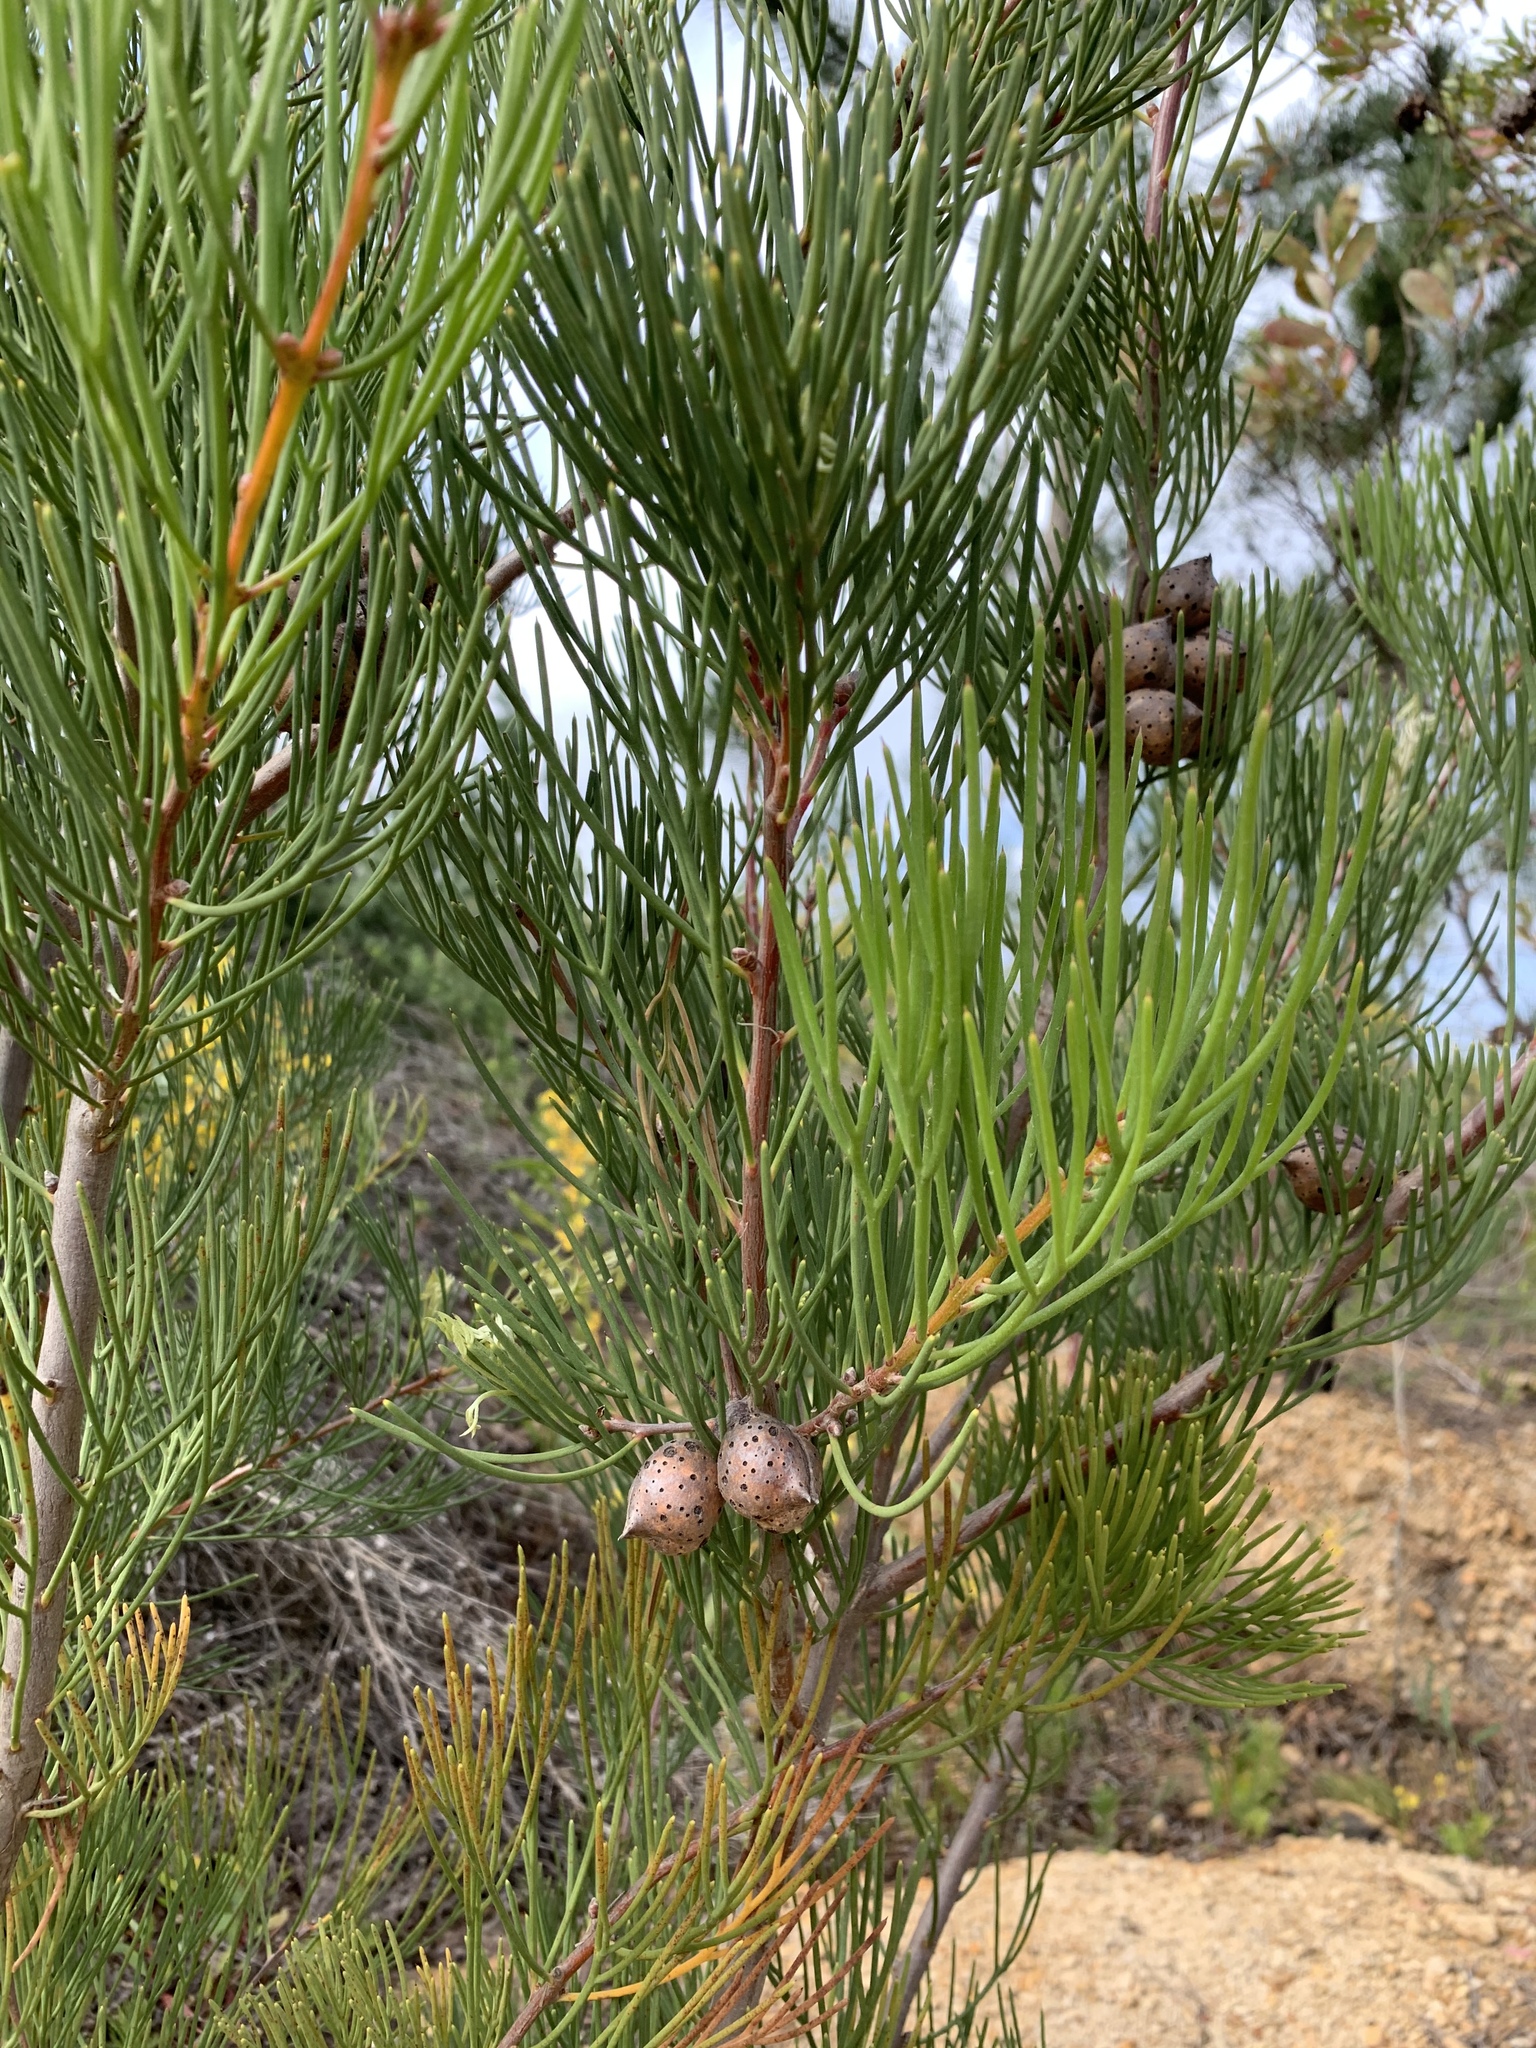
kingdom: Plantae
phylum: Tracheophyta
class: Magnoliopsida
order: Proteales
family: Proteaceae
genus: Hakea
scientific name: Hakea drupacea
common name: Sweet hakea
